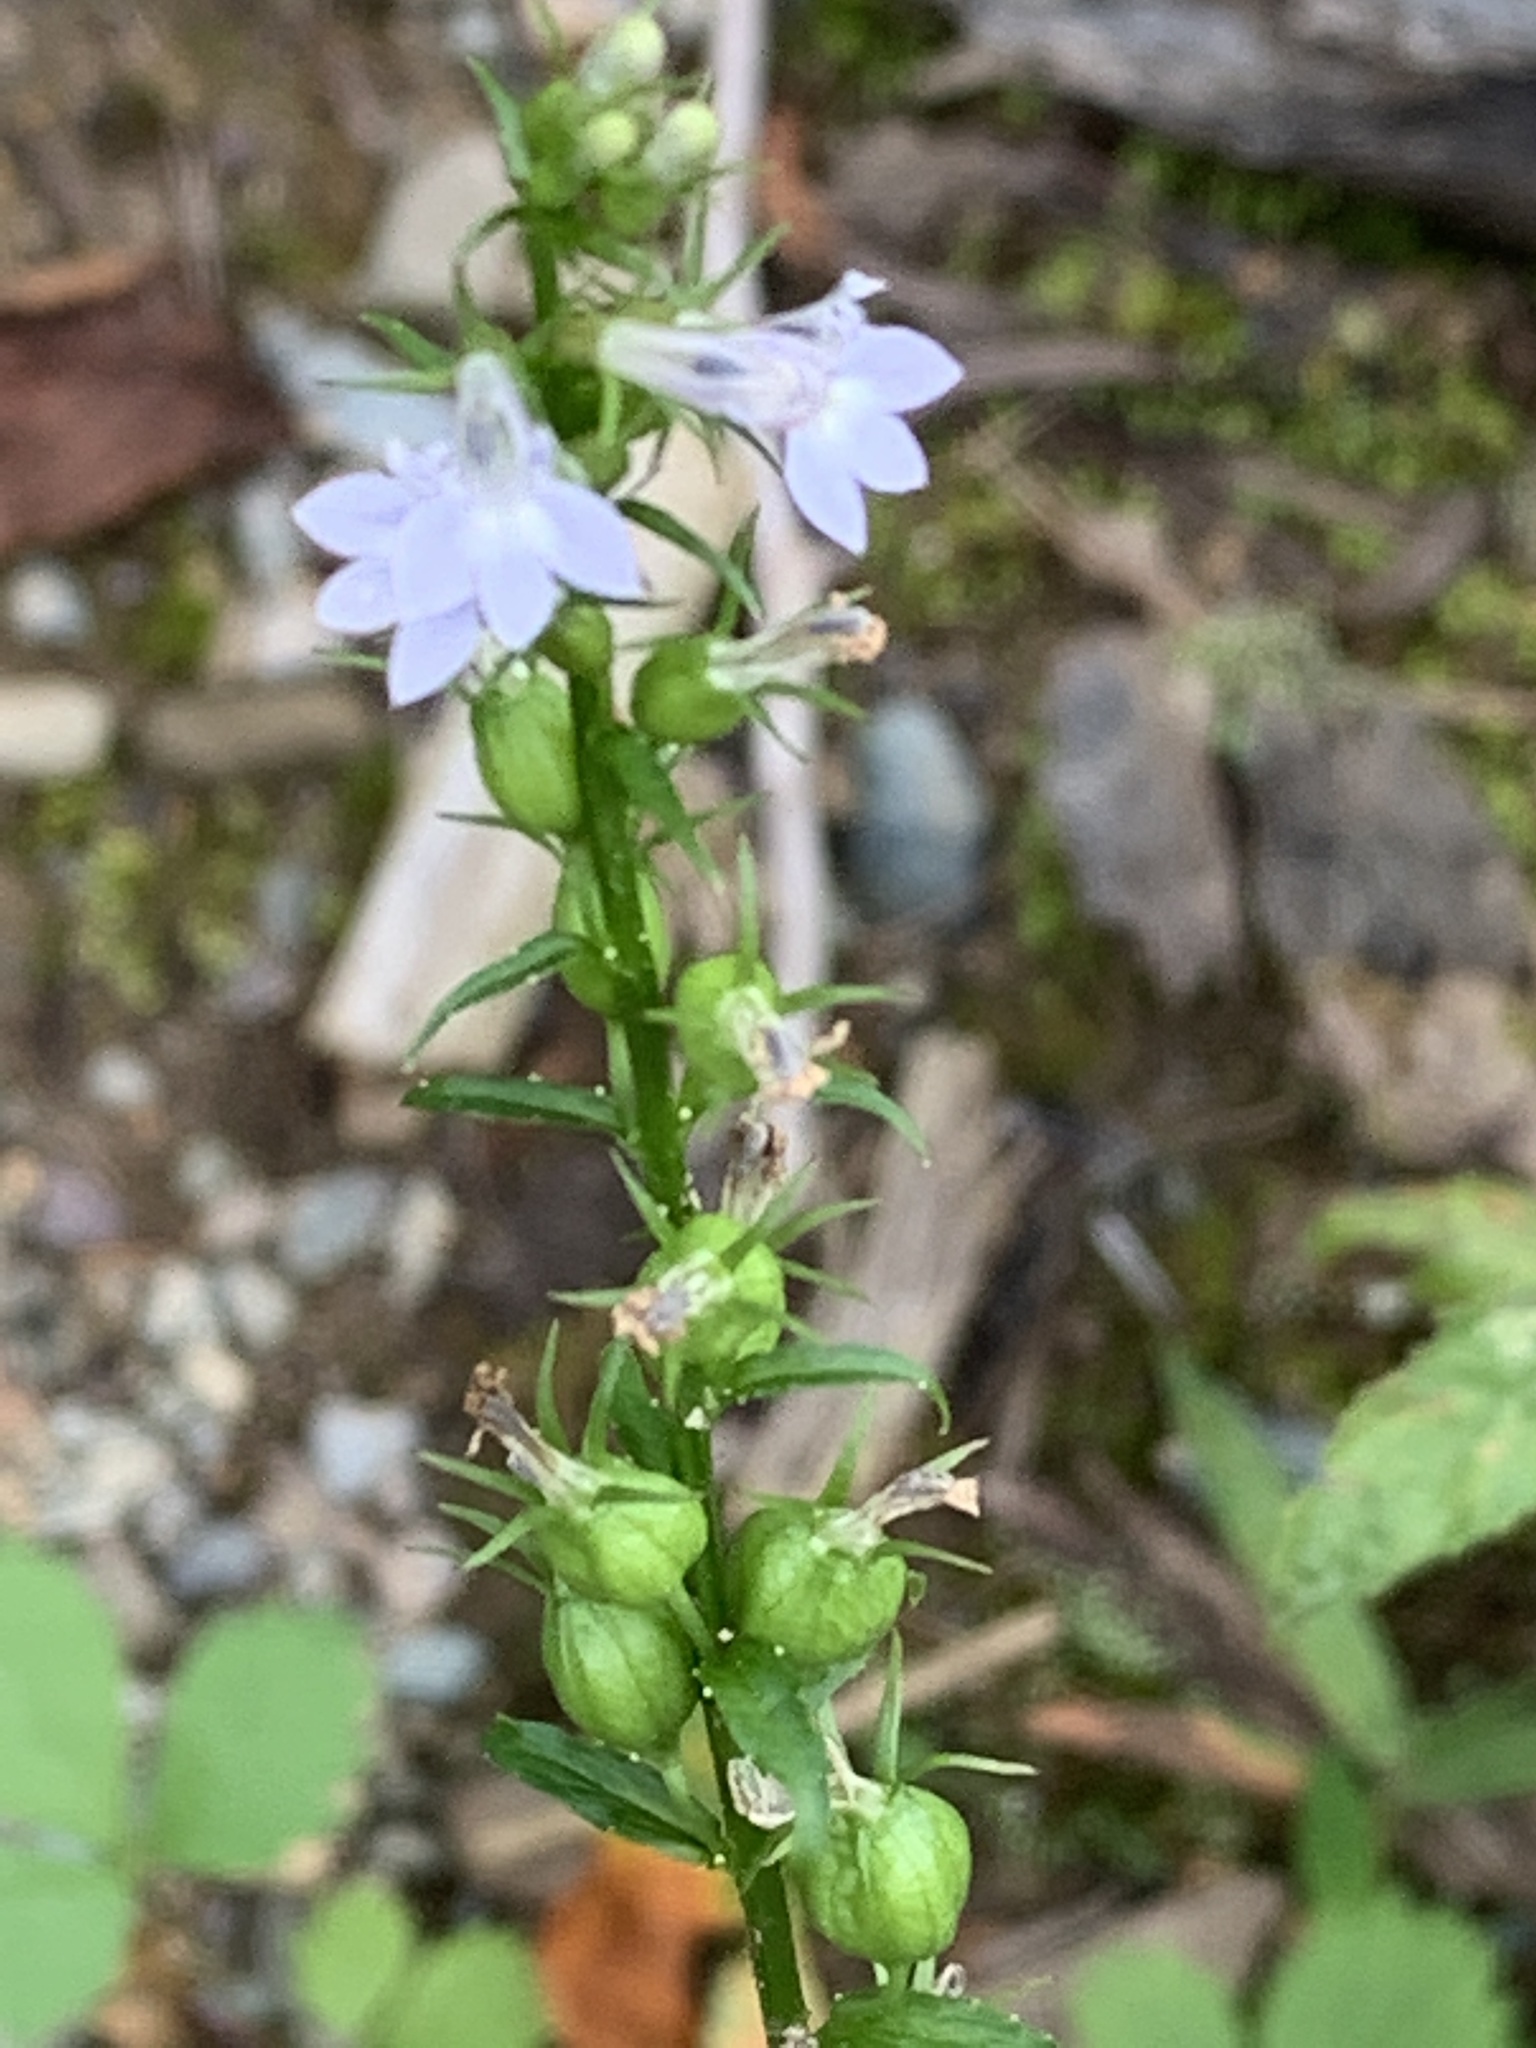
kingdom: Plantae
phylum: Tracheophyta
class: Magnoliopsida
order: Asterales
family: Campanulaceae
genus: Lobelia
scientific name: Lobelia inflata
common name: Indian tobacco
